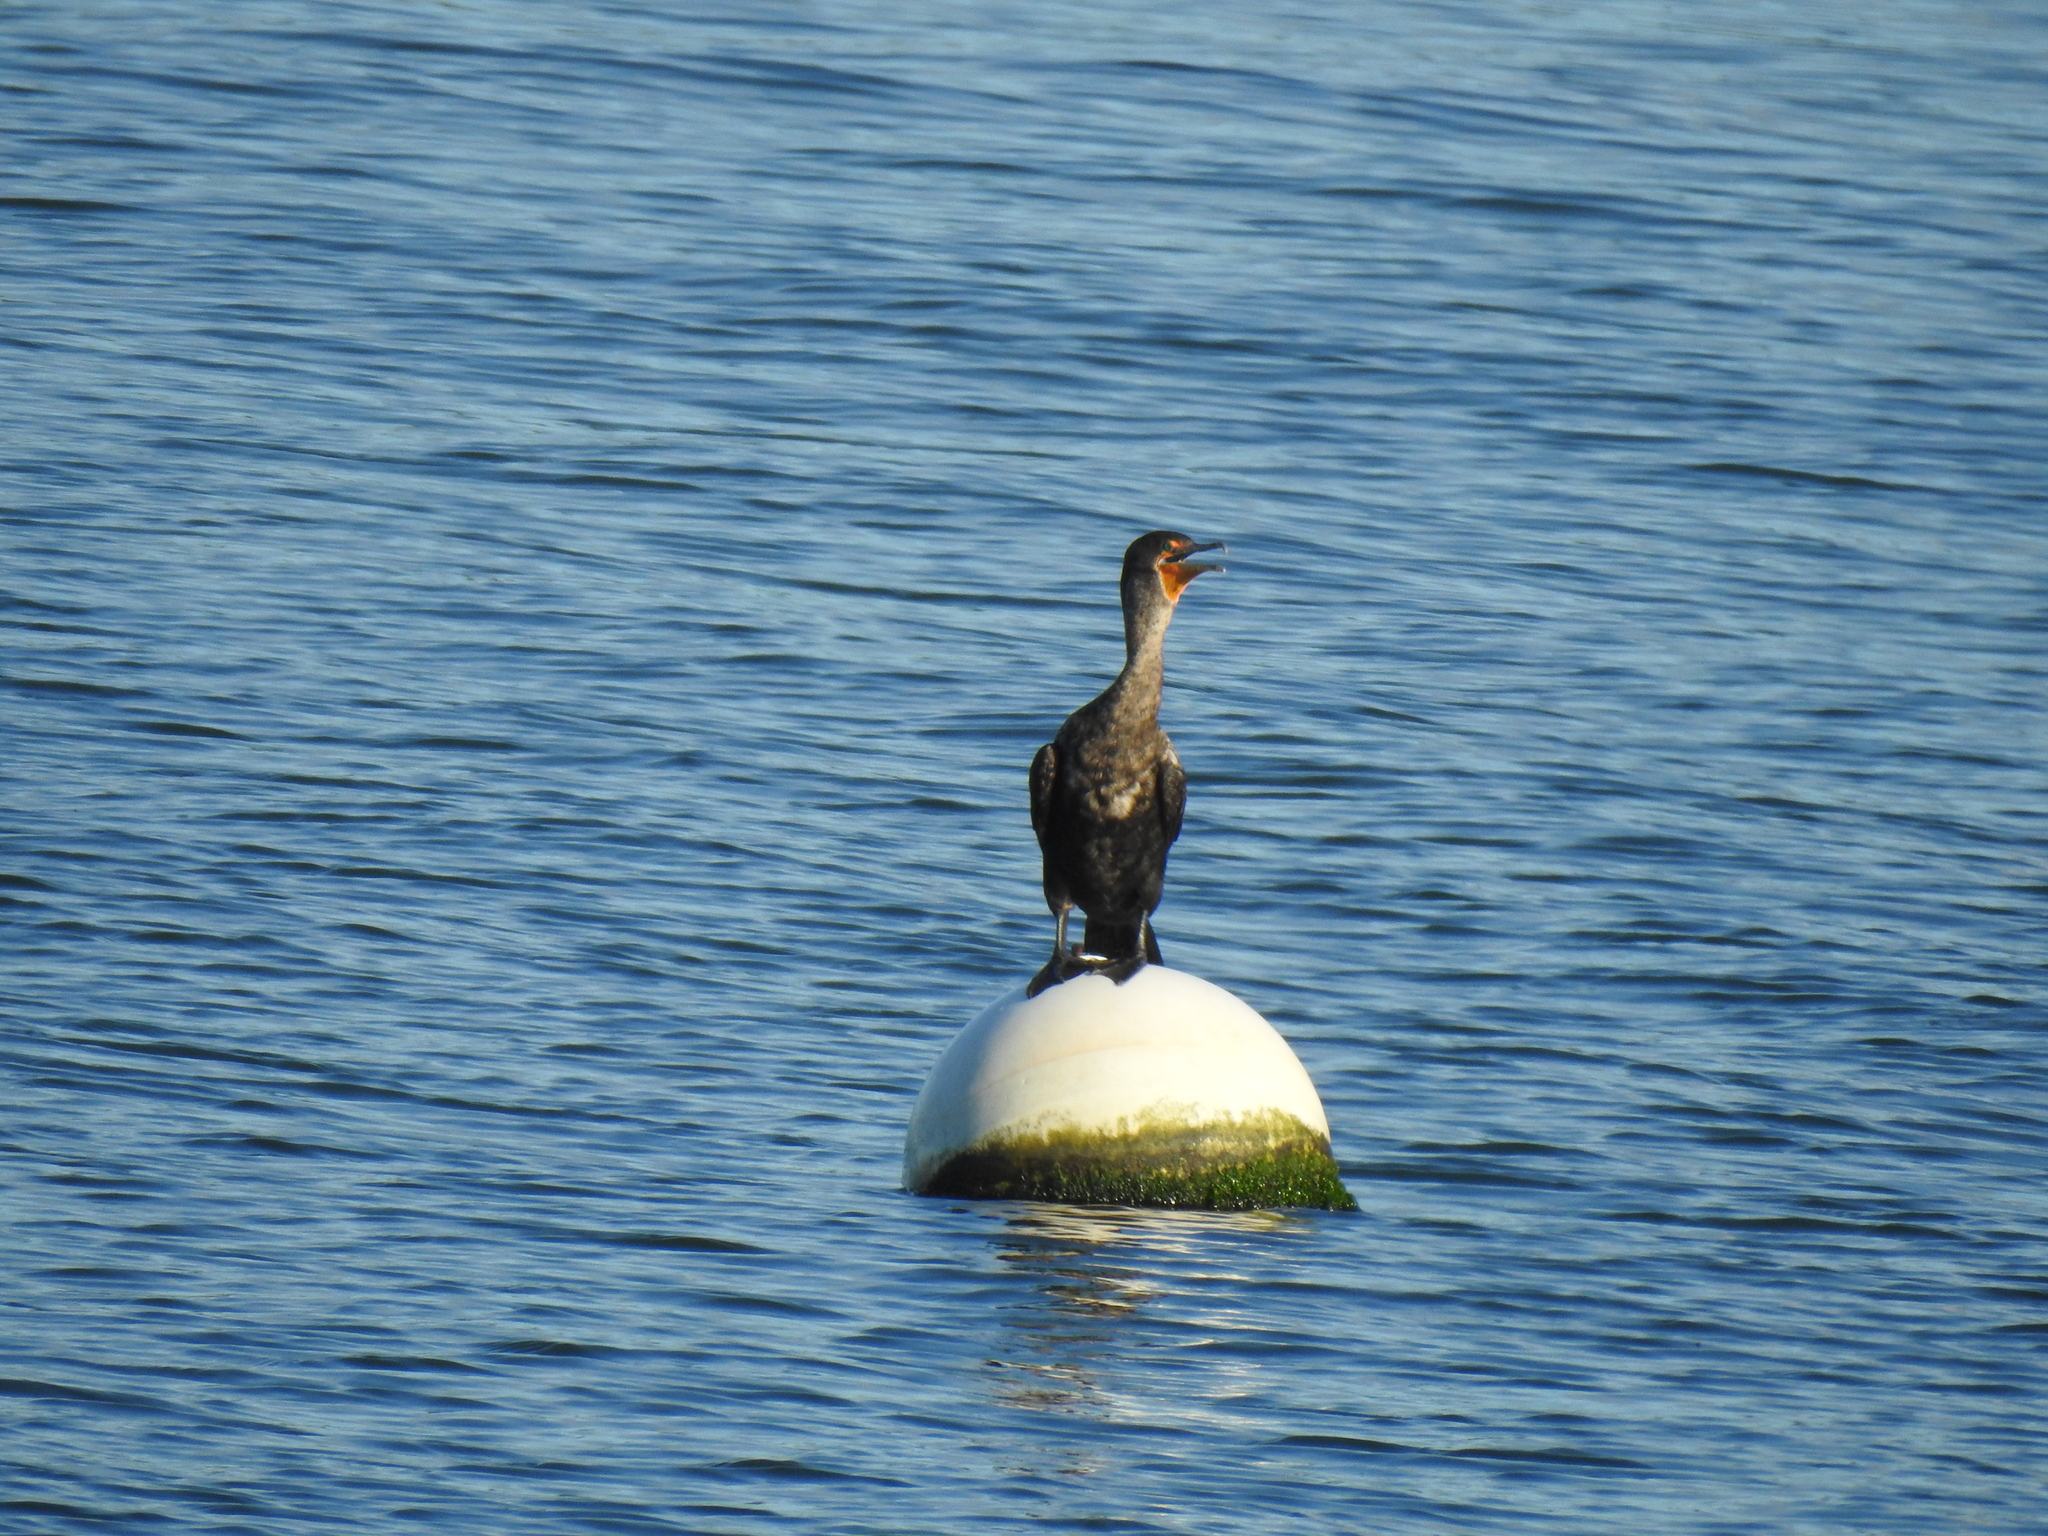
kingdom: Animalia
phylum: Chordata
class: Aves
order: Suliformes
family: Phalacrocoracidae
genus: Phalacrocorax
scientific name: Phalacrocorax auritus
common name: Double-crested cormorant
